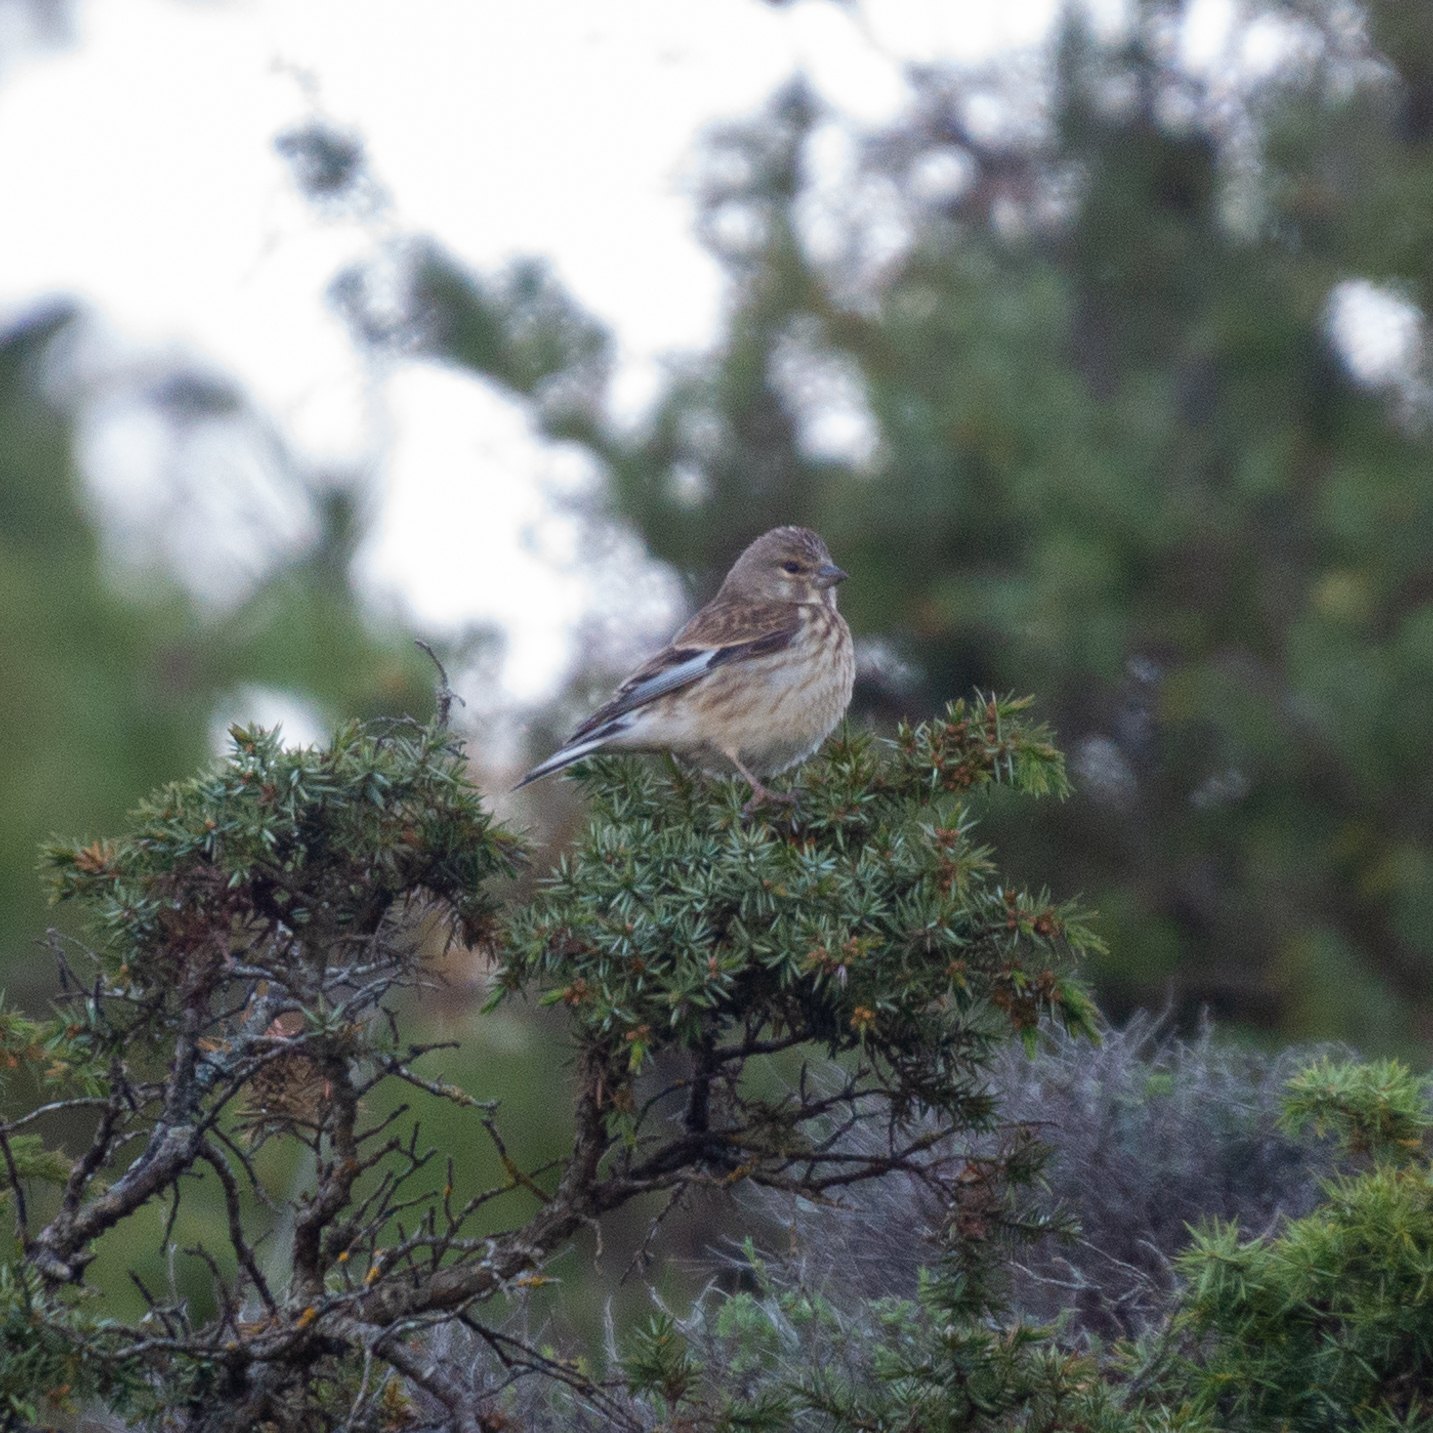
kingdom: Animalia
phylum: Chordata
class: Aves
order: Passeriformes
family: Fringillidae
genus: Linaria
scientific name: Linaria cannabina
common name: Common linnet
